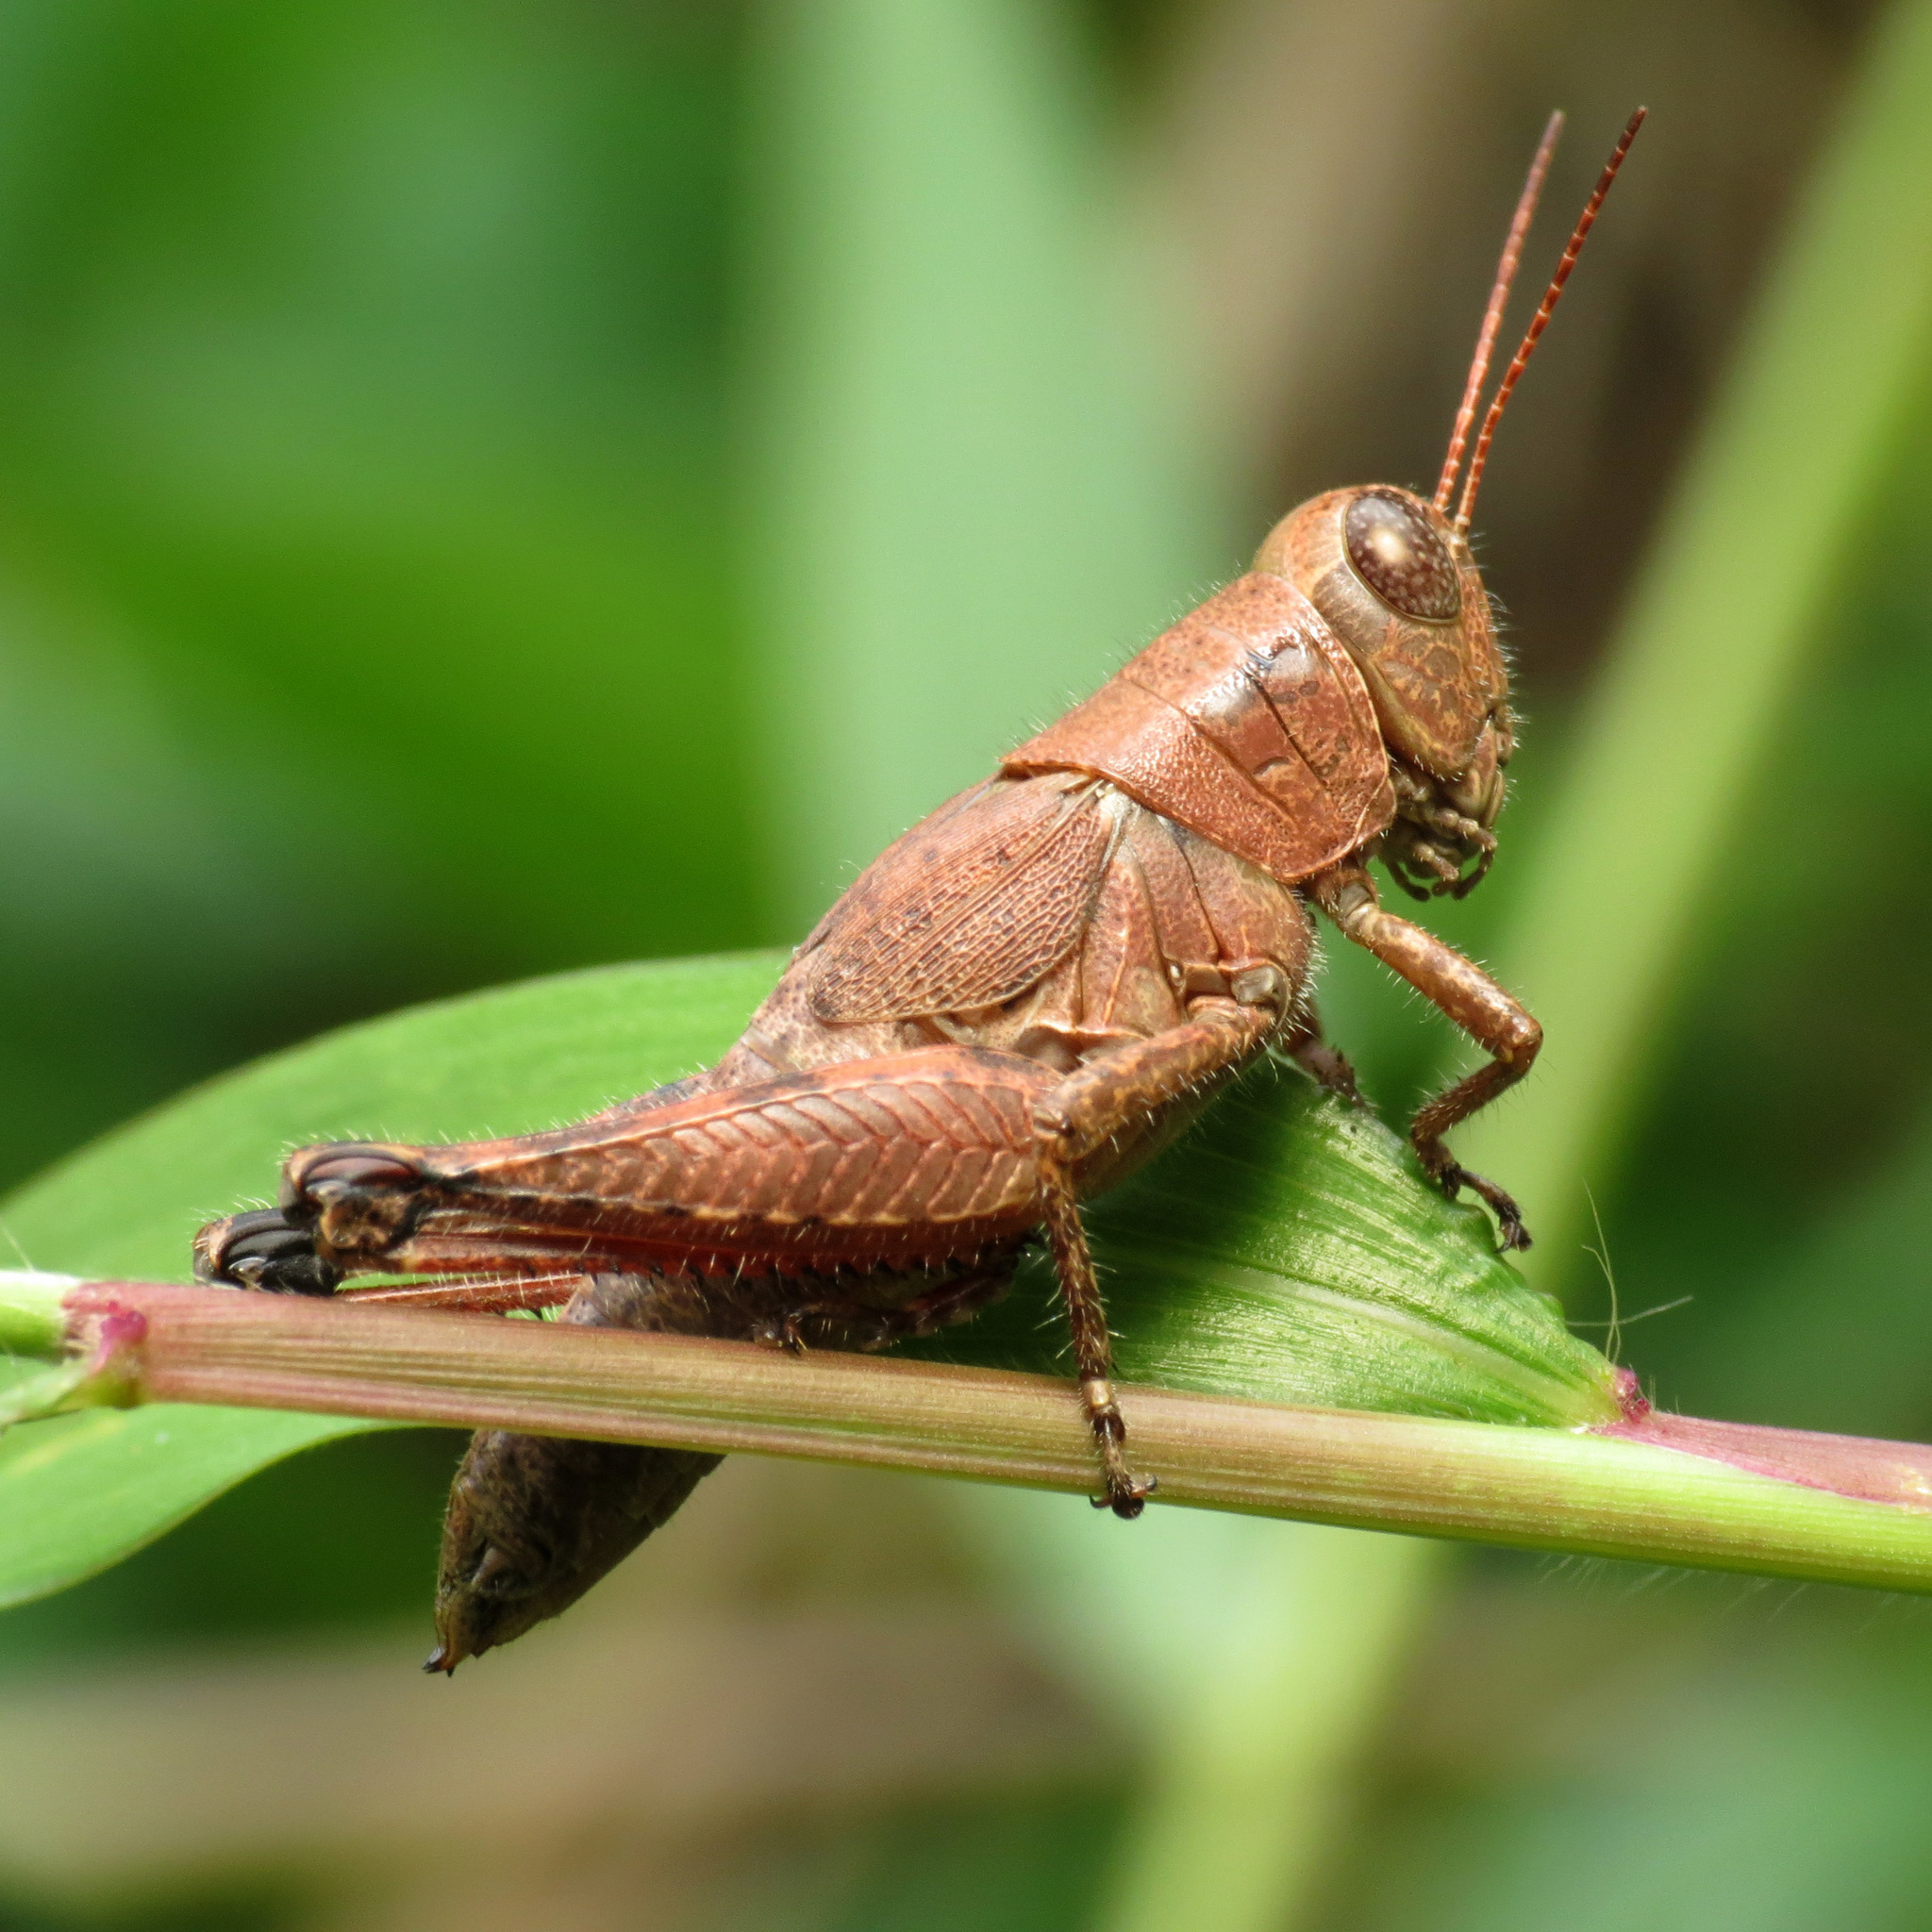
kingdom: Animalia
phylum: Arthropoda
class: Insecta
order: Orthoptera
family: Acrididae
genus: Melanoplus
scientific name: Melanoplus scudderi
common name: Scudder's short-winged locust
